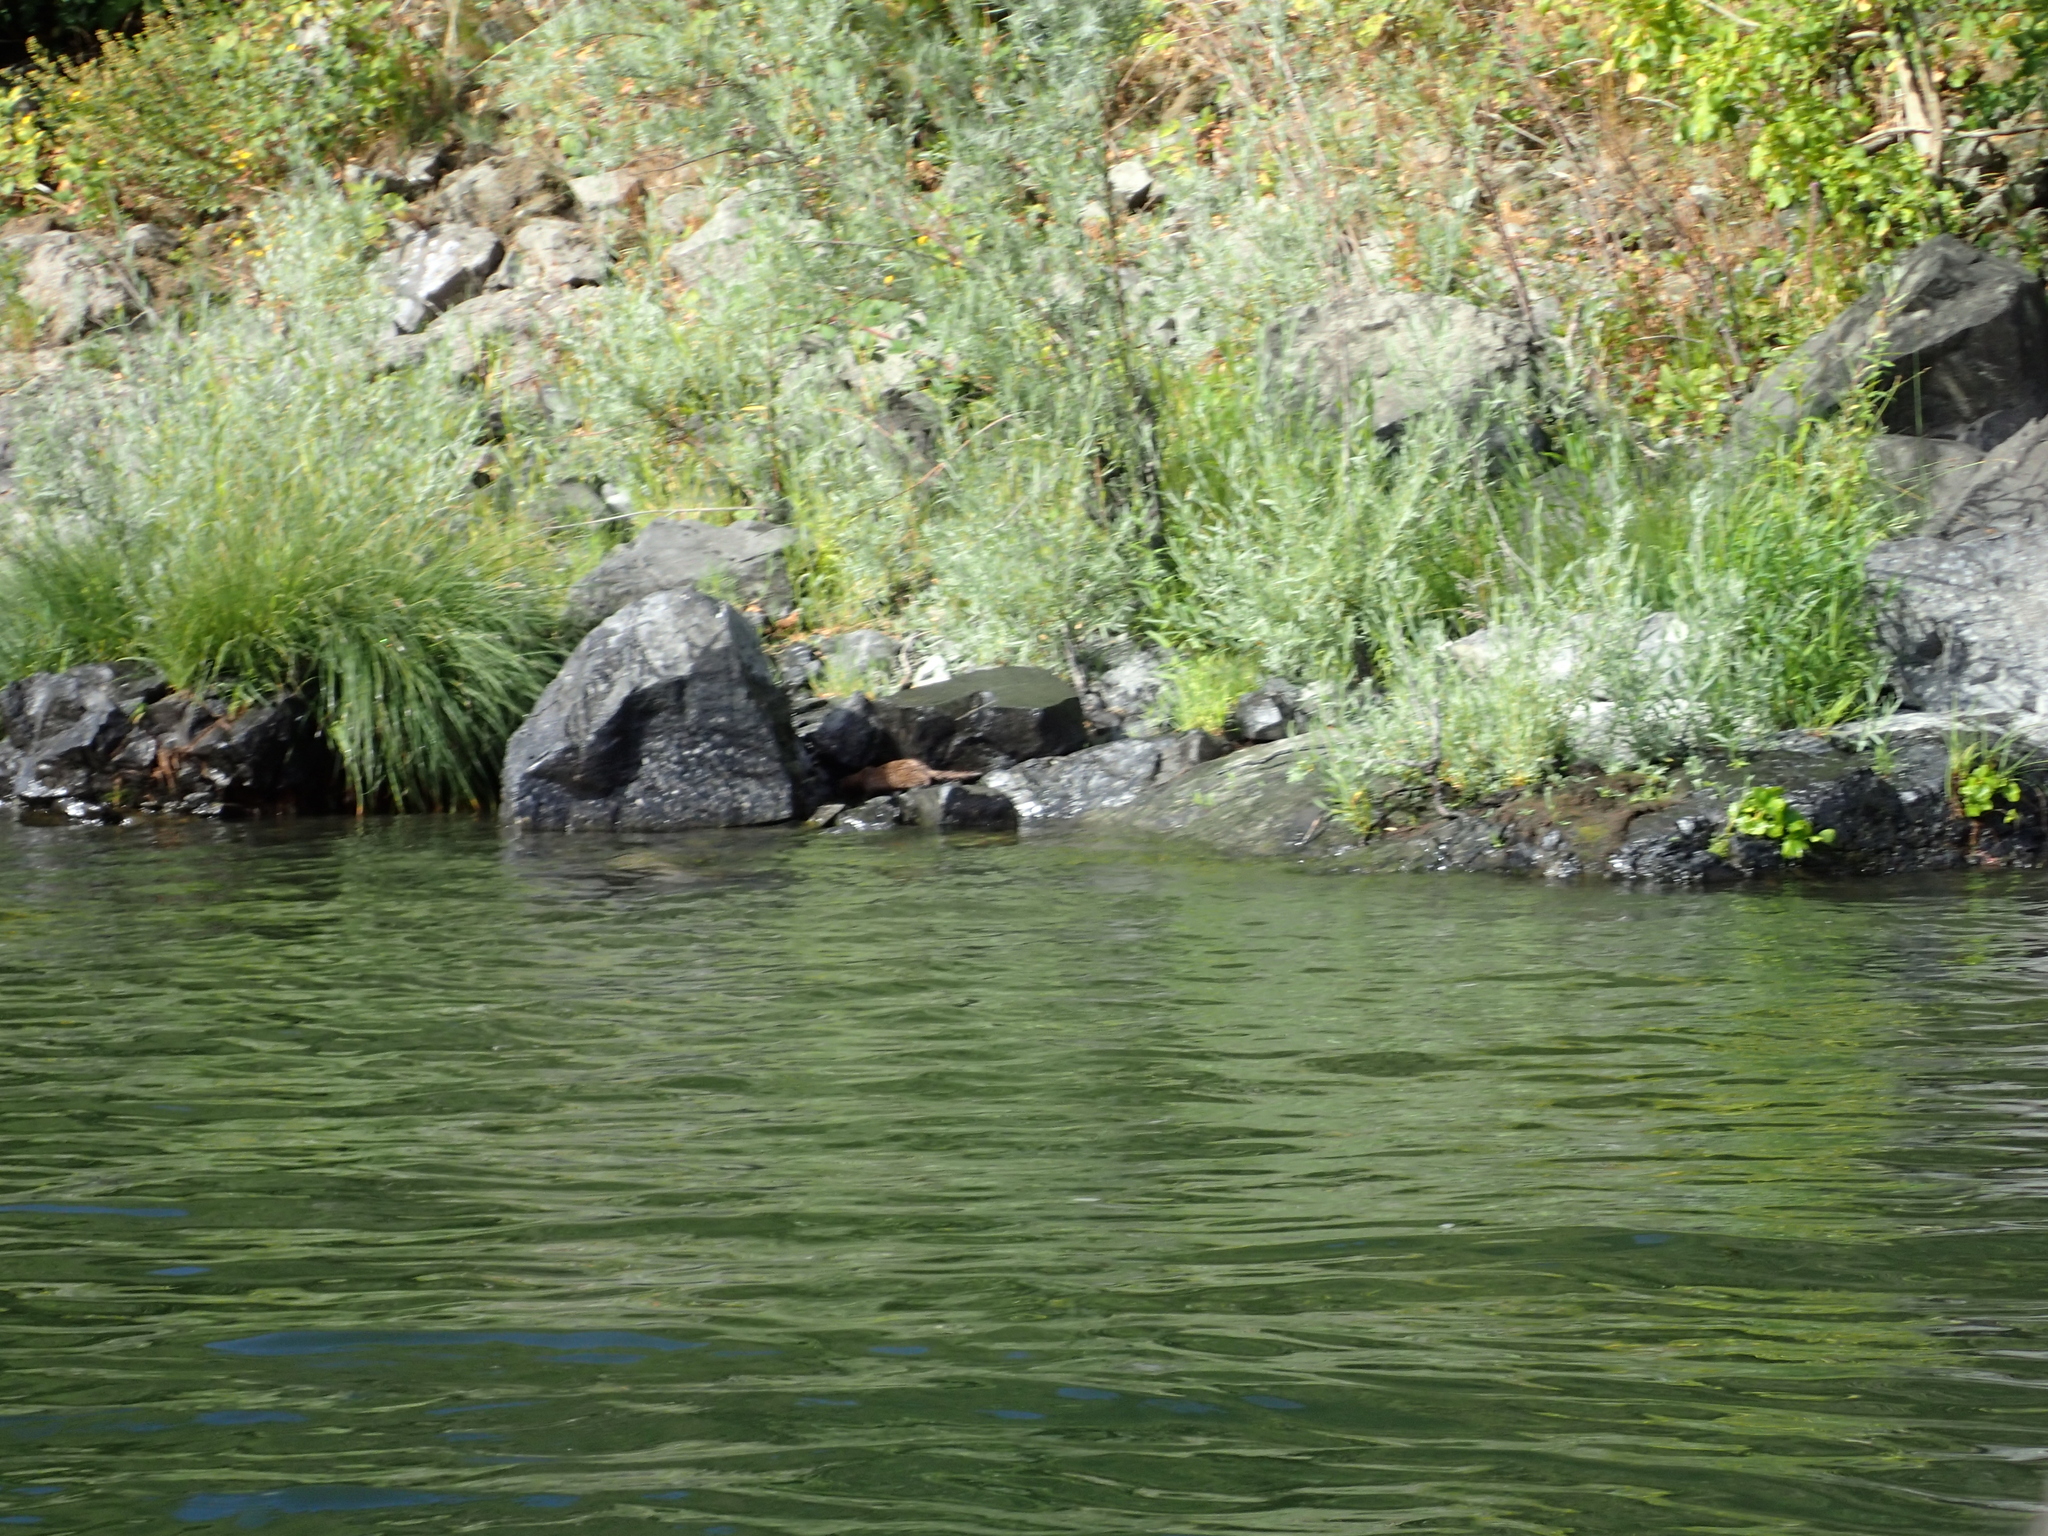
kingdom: Animalia
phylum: Chordata
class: Mammalia
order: Carnivora
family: Mustelidae
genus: Mustela
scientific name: Mustela
